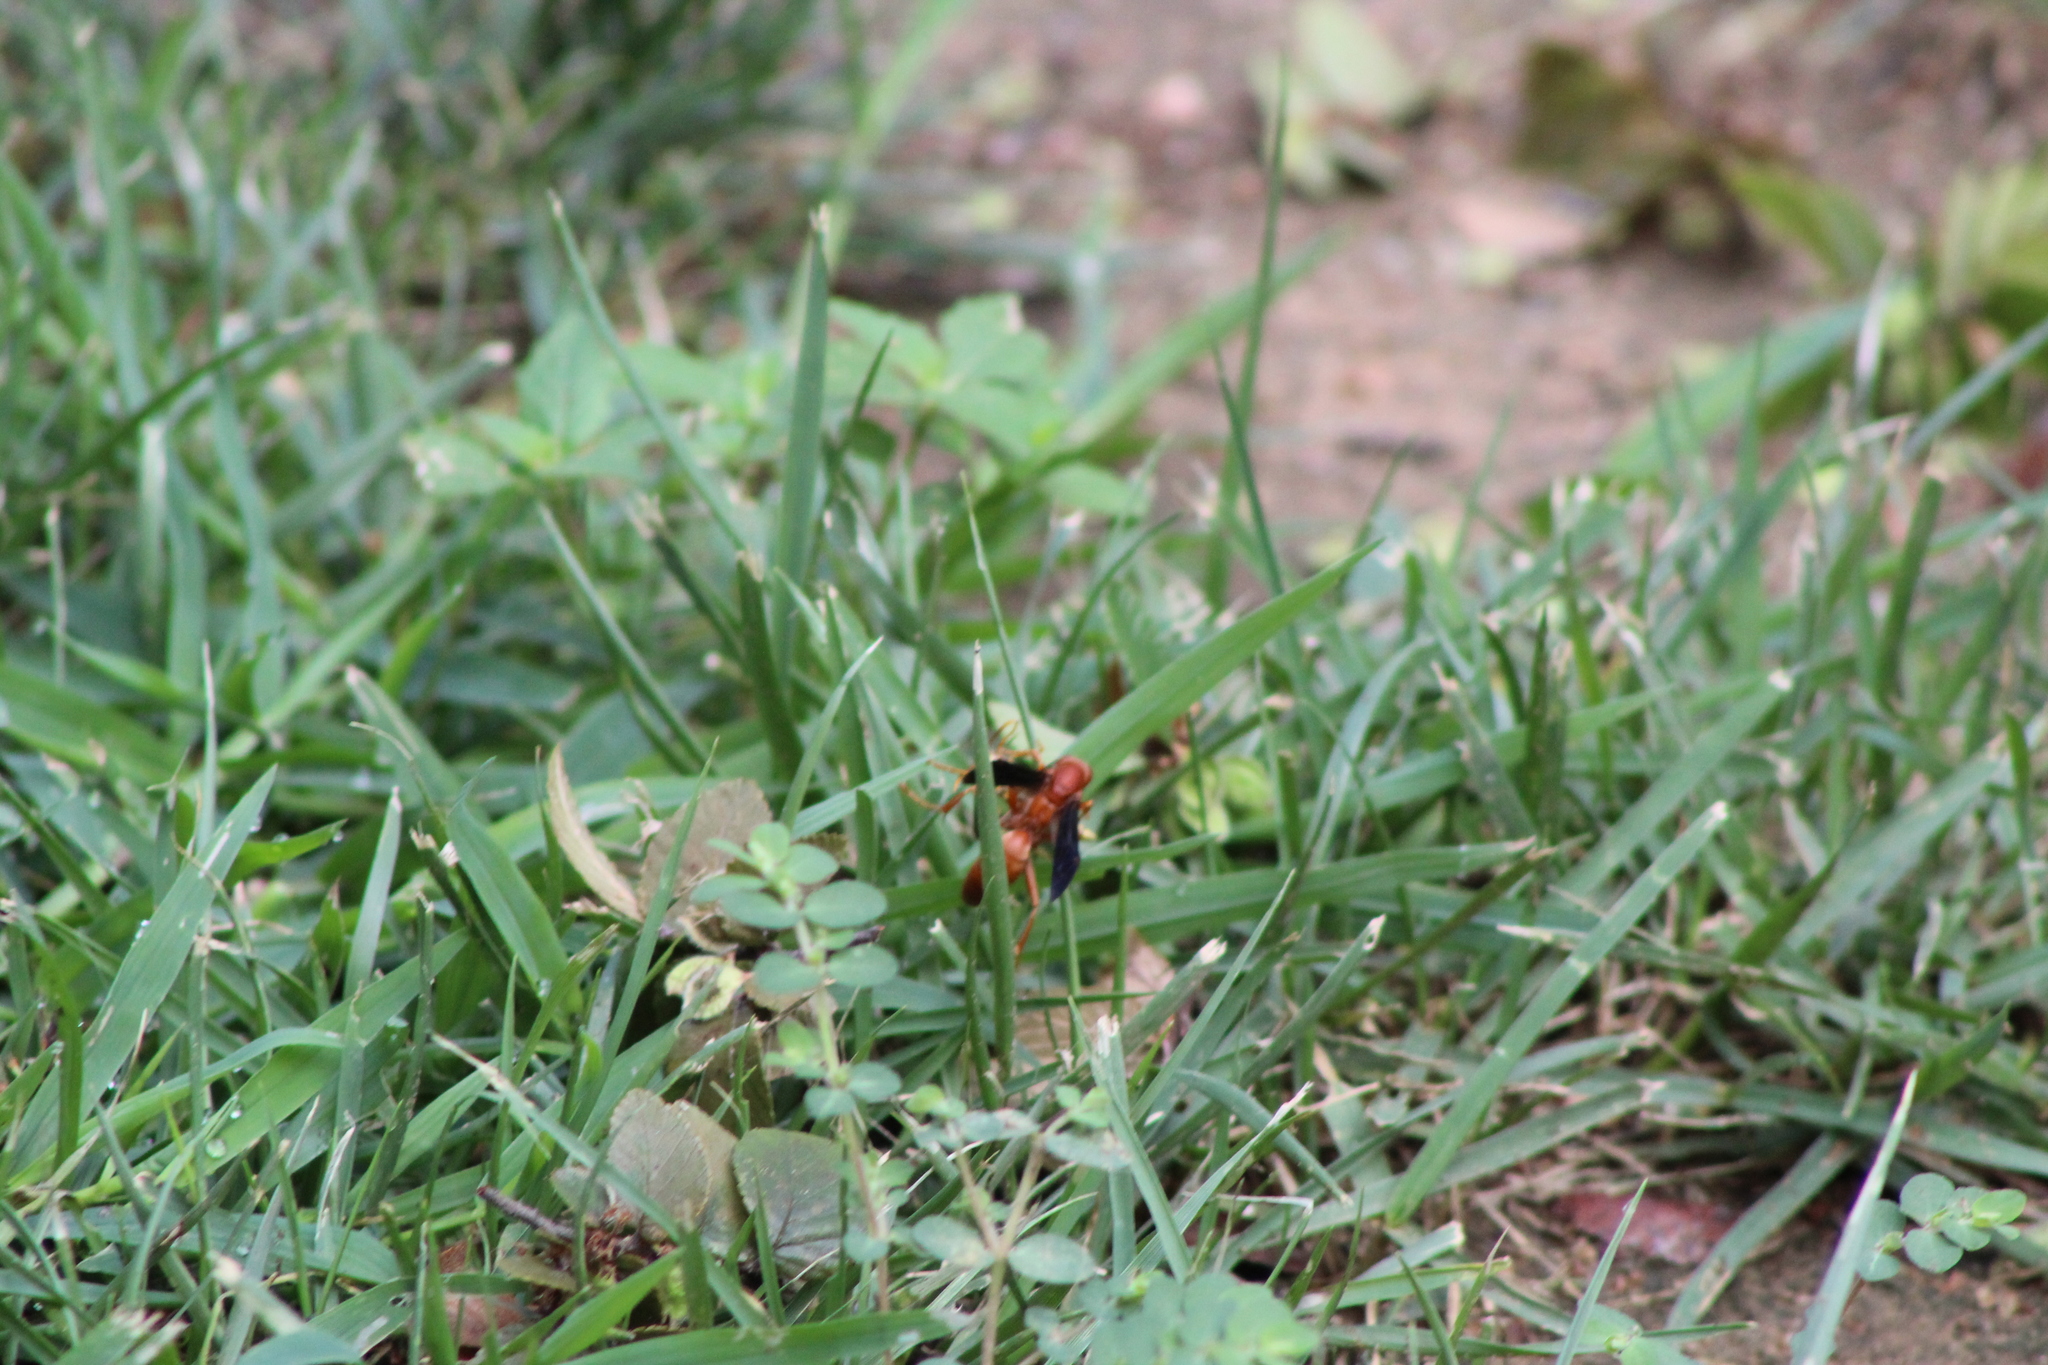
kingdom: Animalia
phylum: Arthropoda
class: Insecta
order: Hymenoptera
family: Eumenidae
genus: Polistes
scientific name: Polistes carolina
